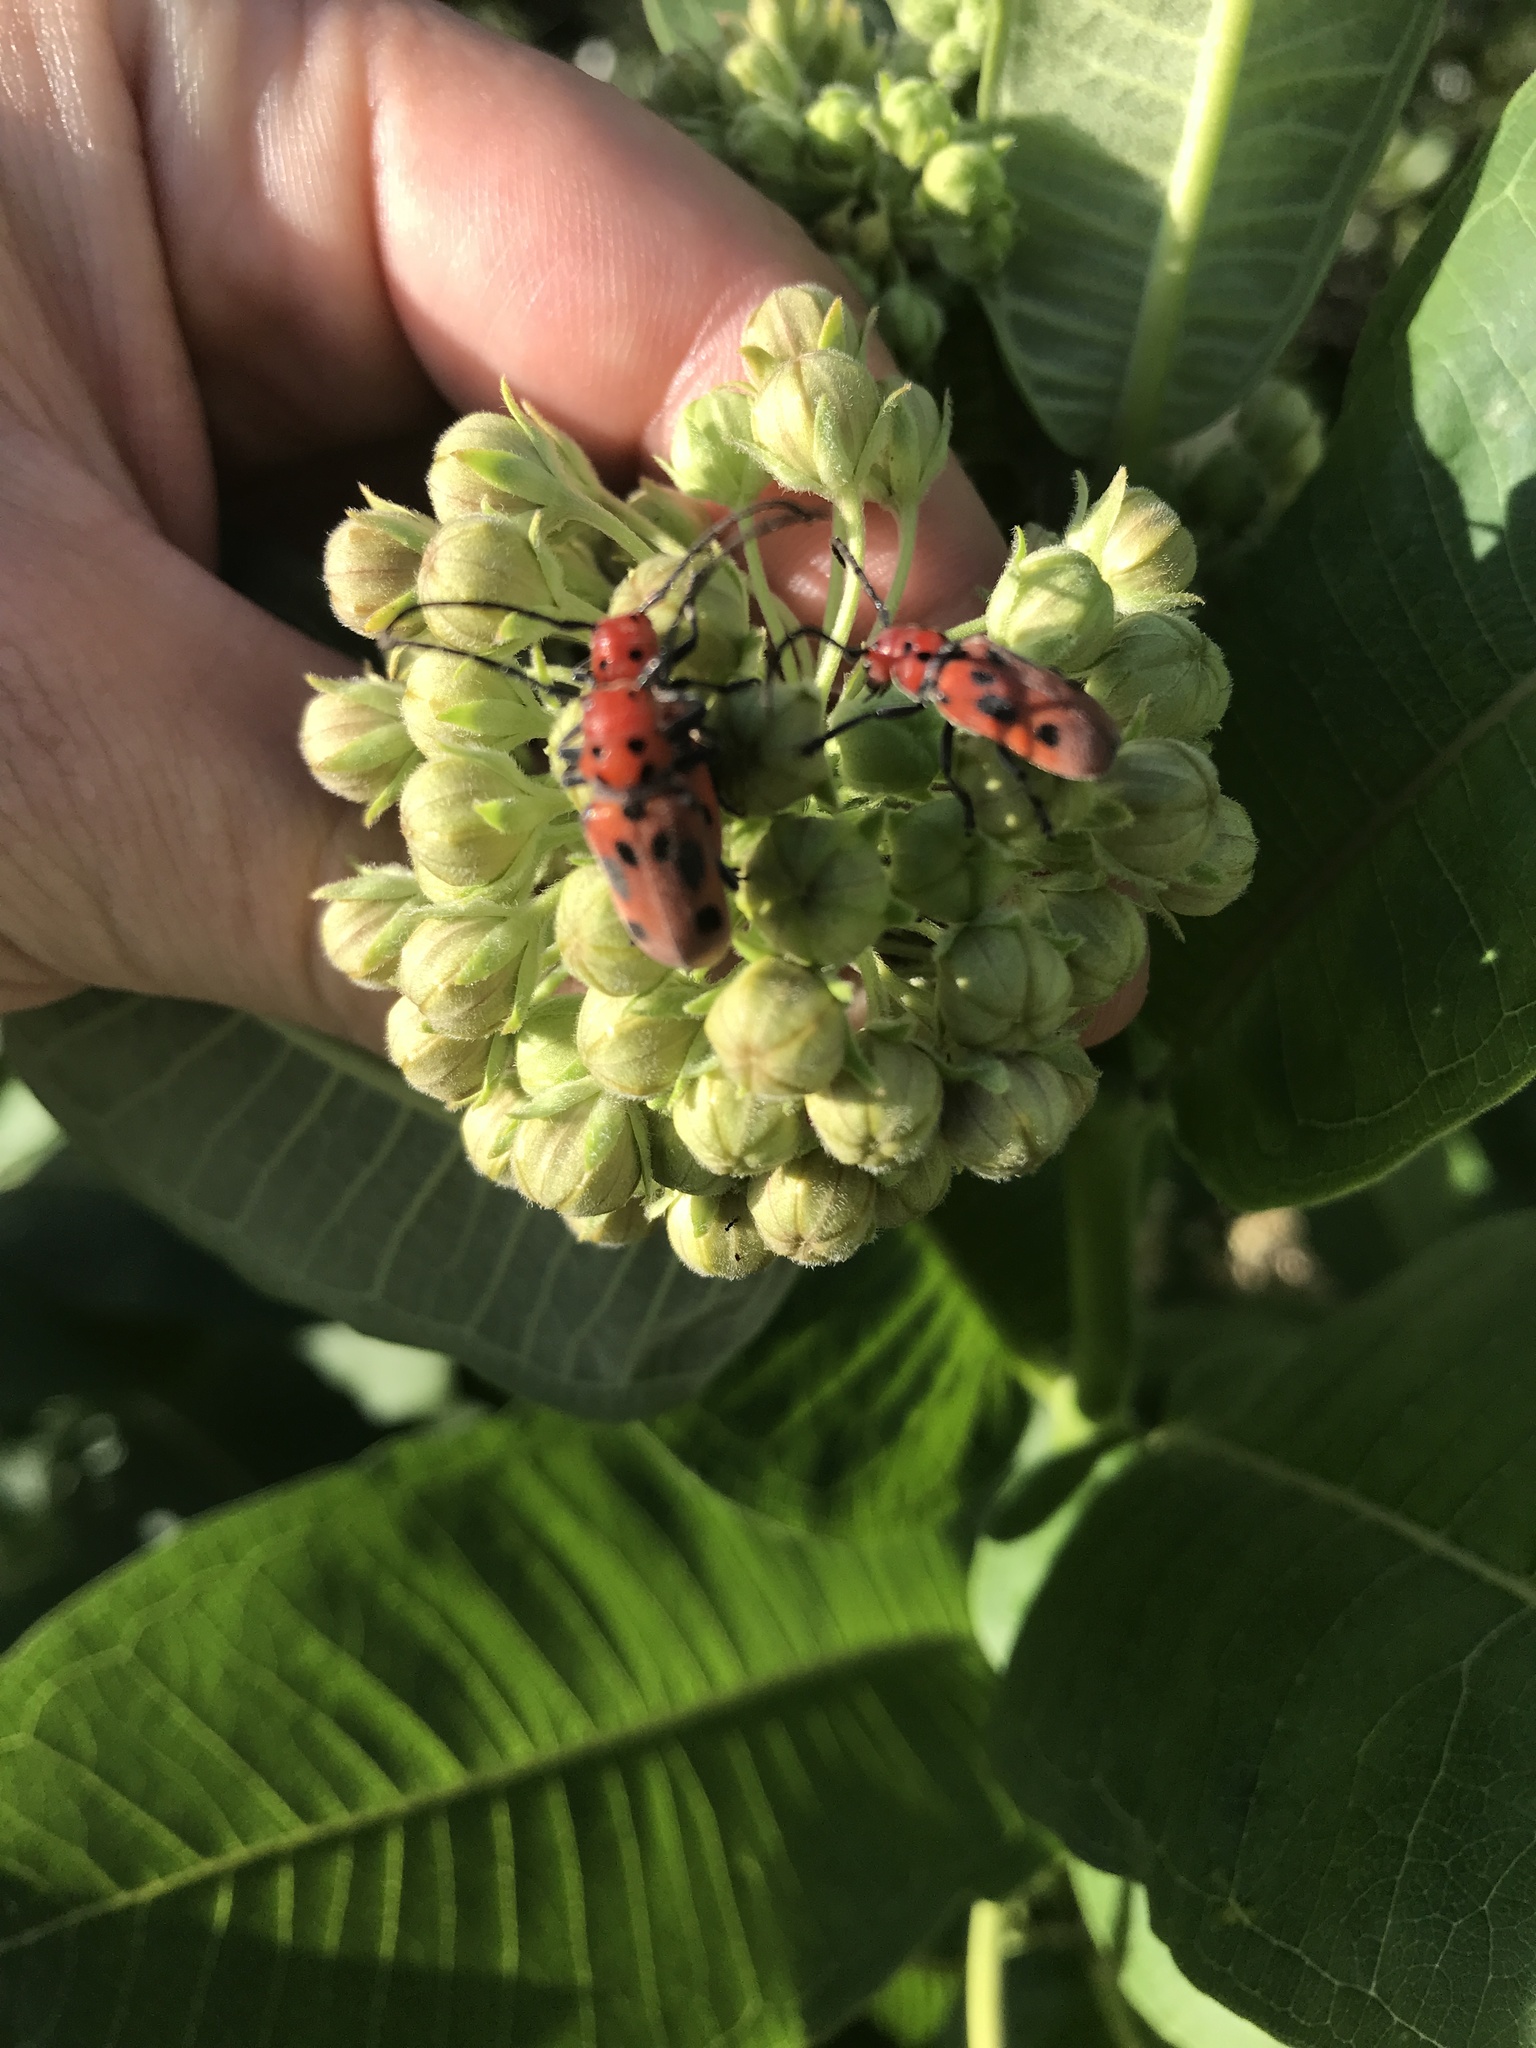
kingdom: Animalia
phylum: Arthropoda
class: Insecta
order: Coleoptera
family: Cerambycidae
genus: Tetraopes
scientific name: Tetraopes tetrophthalmus
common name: Red milkweed beetle
